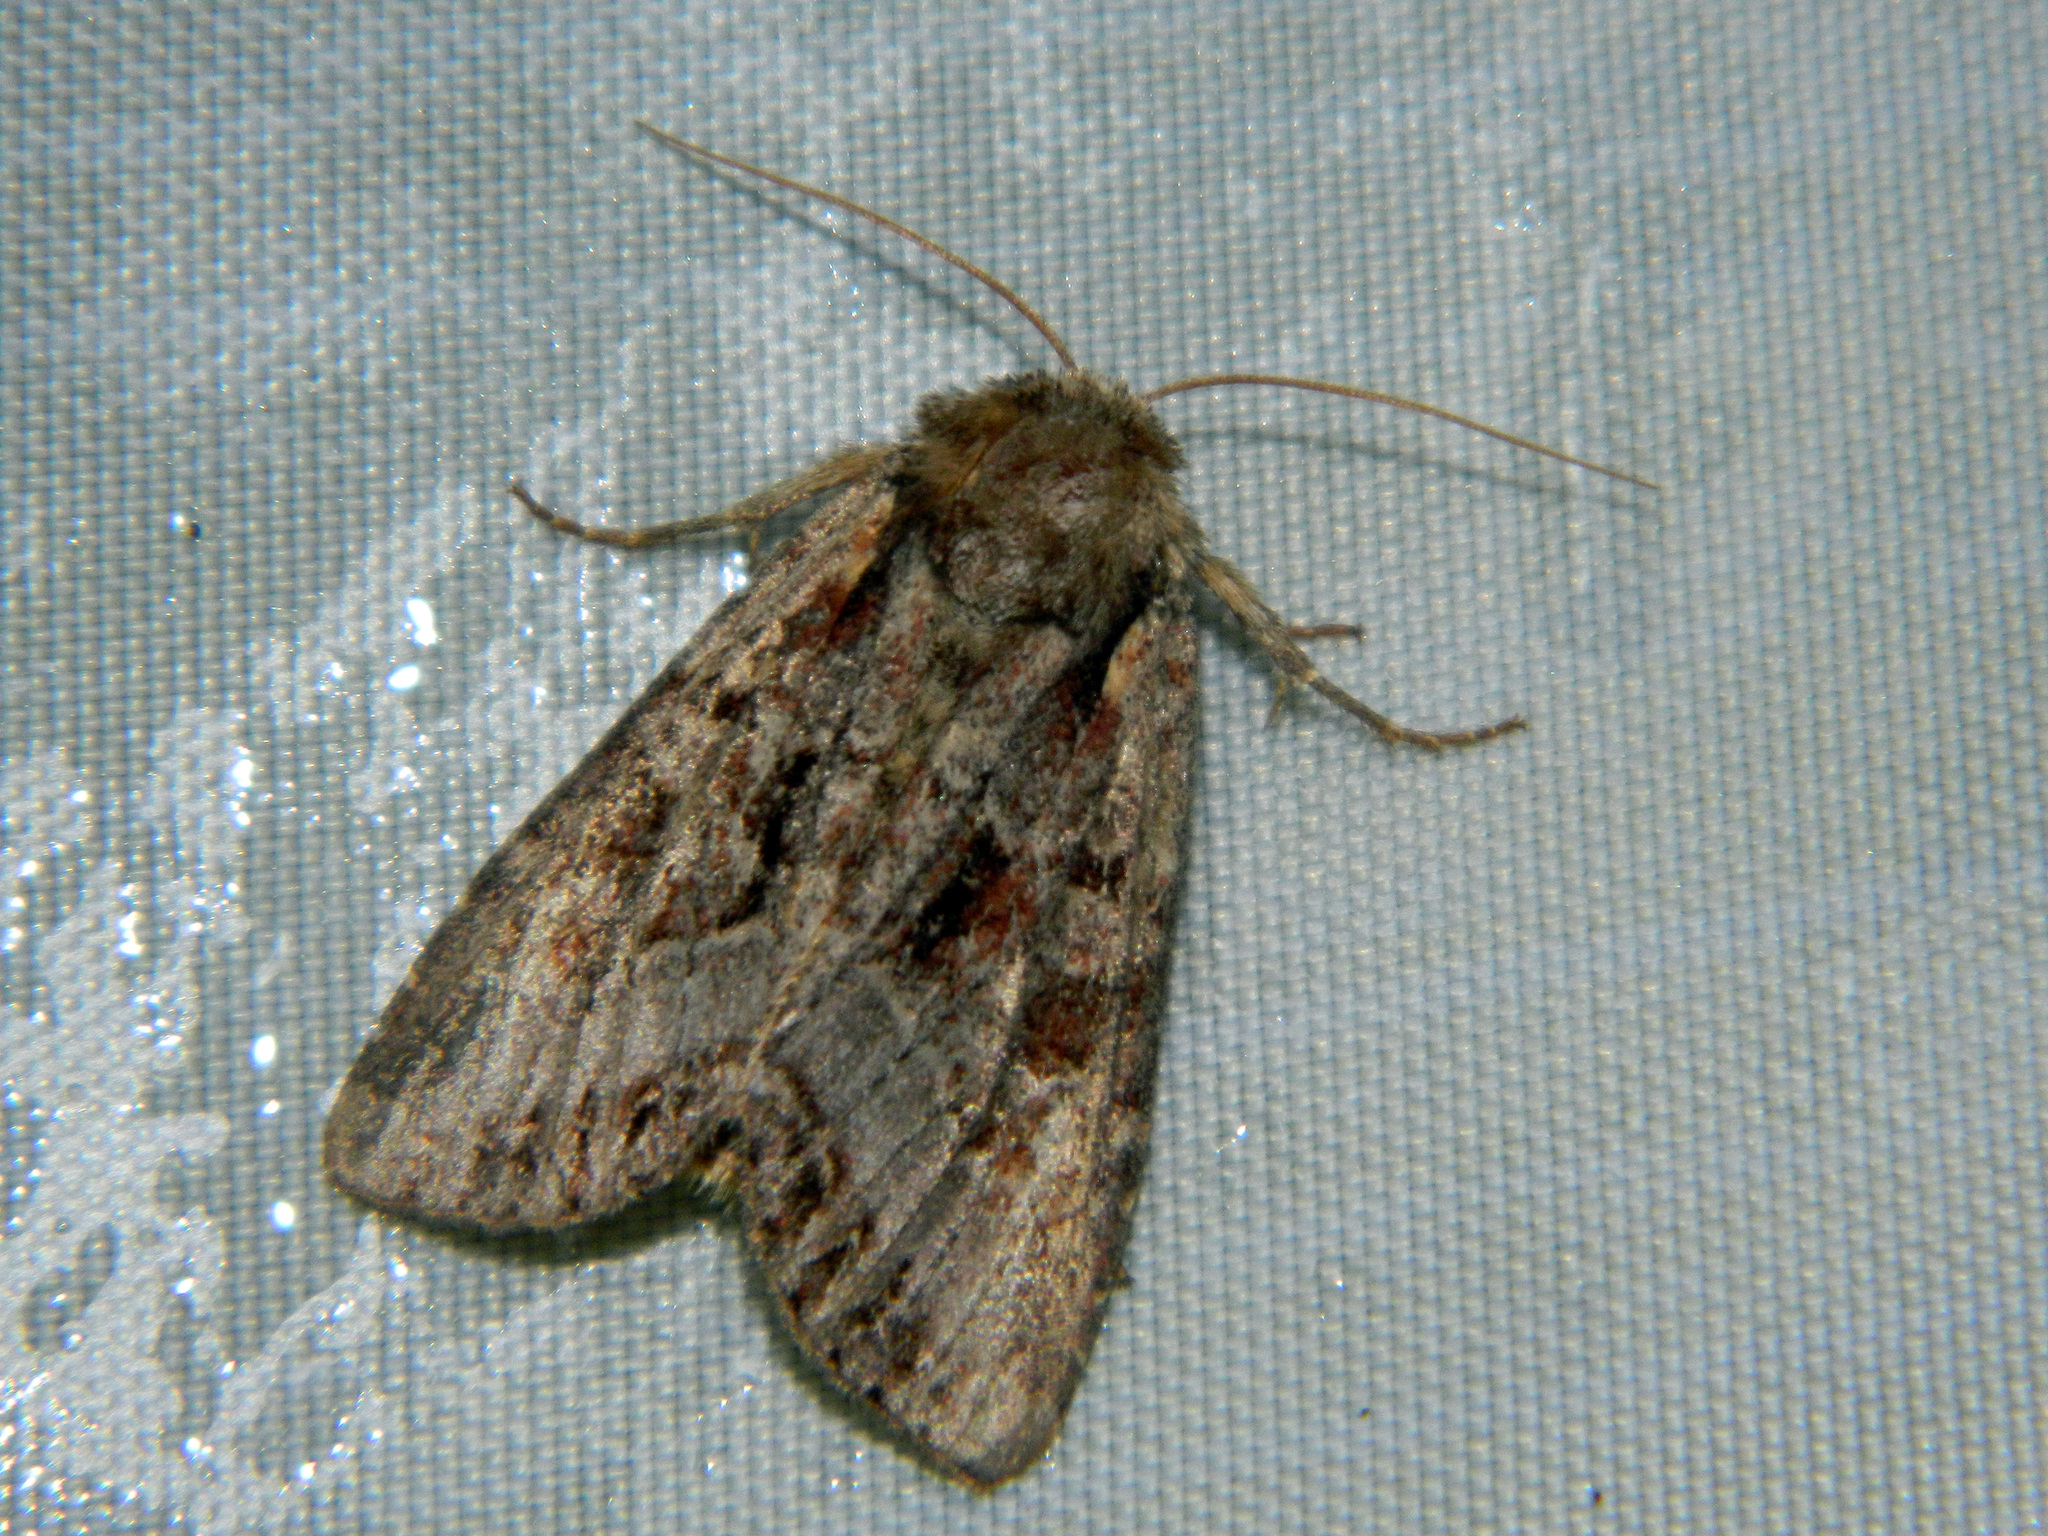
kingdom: Animalia
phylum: Arthropoda
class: Insecta
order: Lepidoptera
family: Noctuidae
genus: Lacanobia
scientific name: Lacanobia grandis
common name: Grand arches moth
